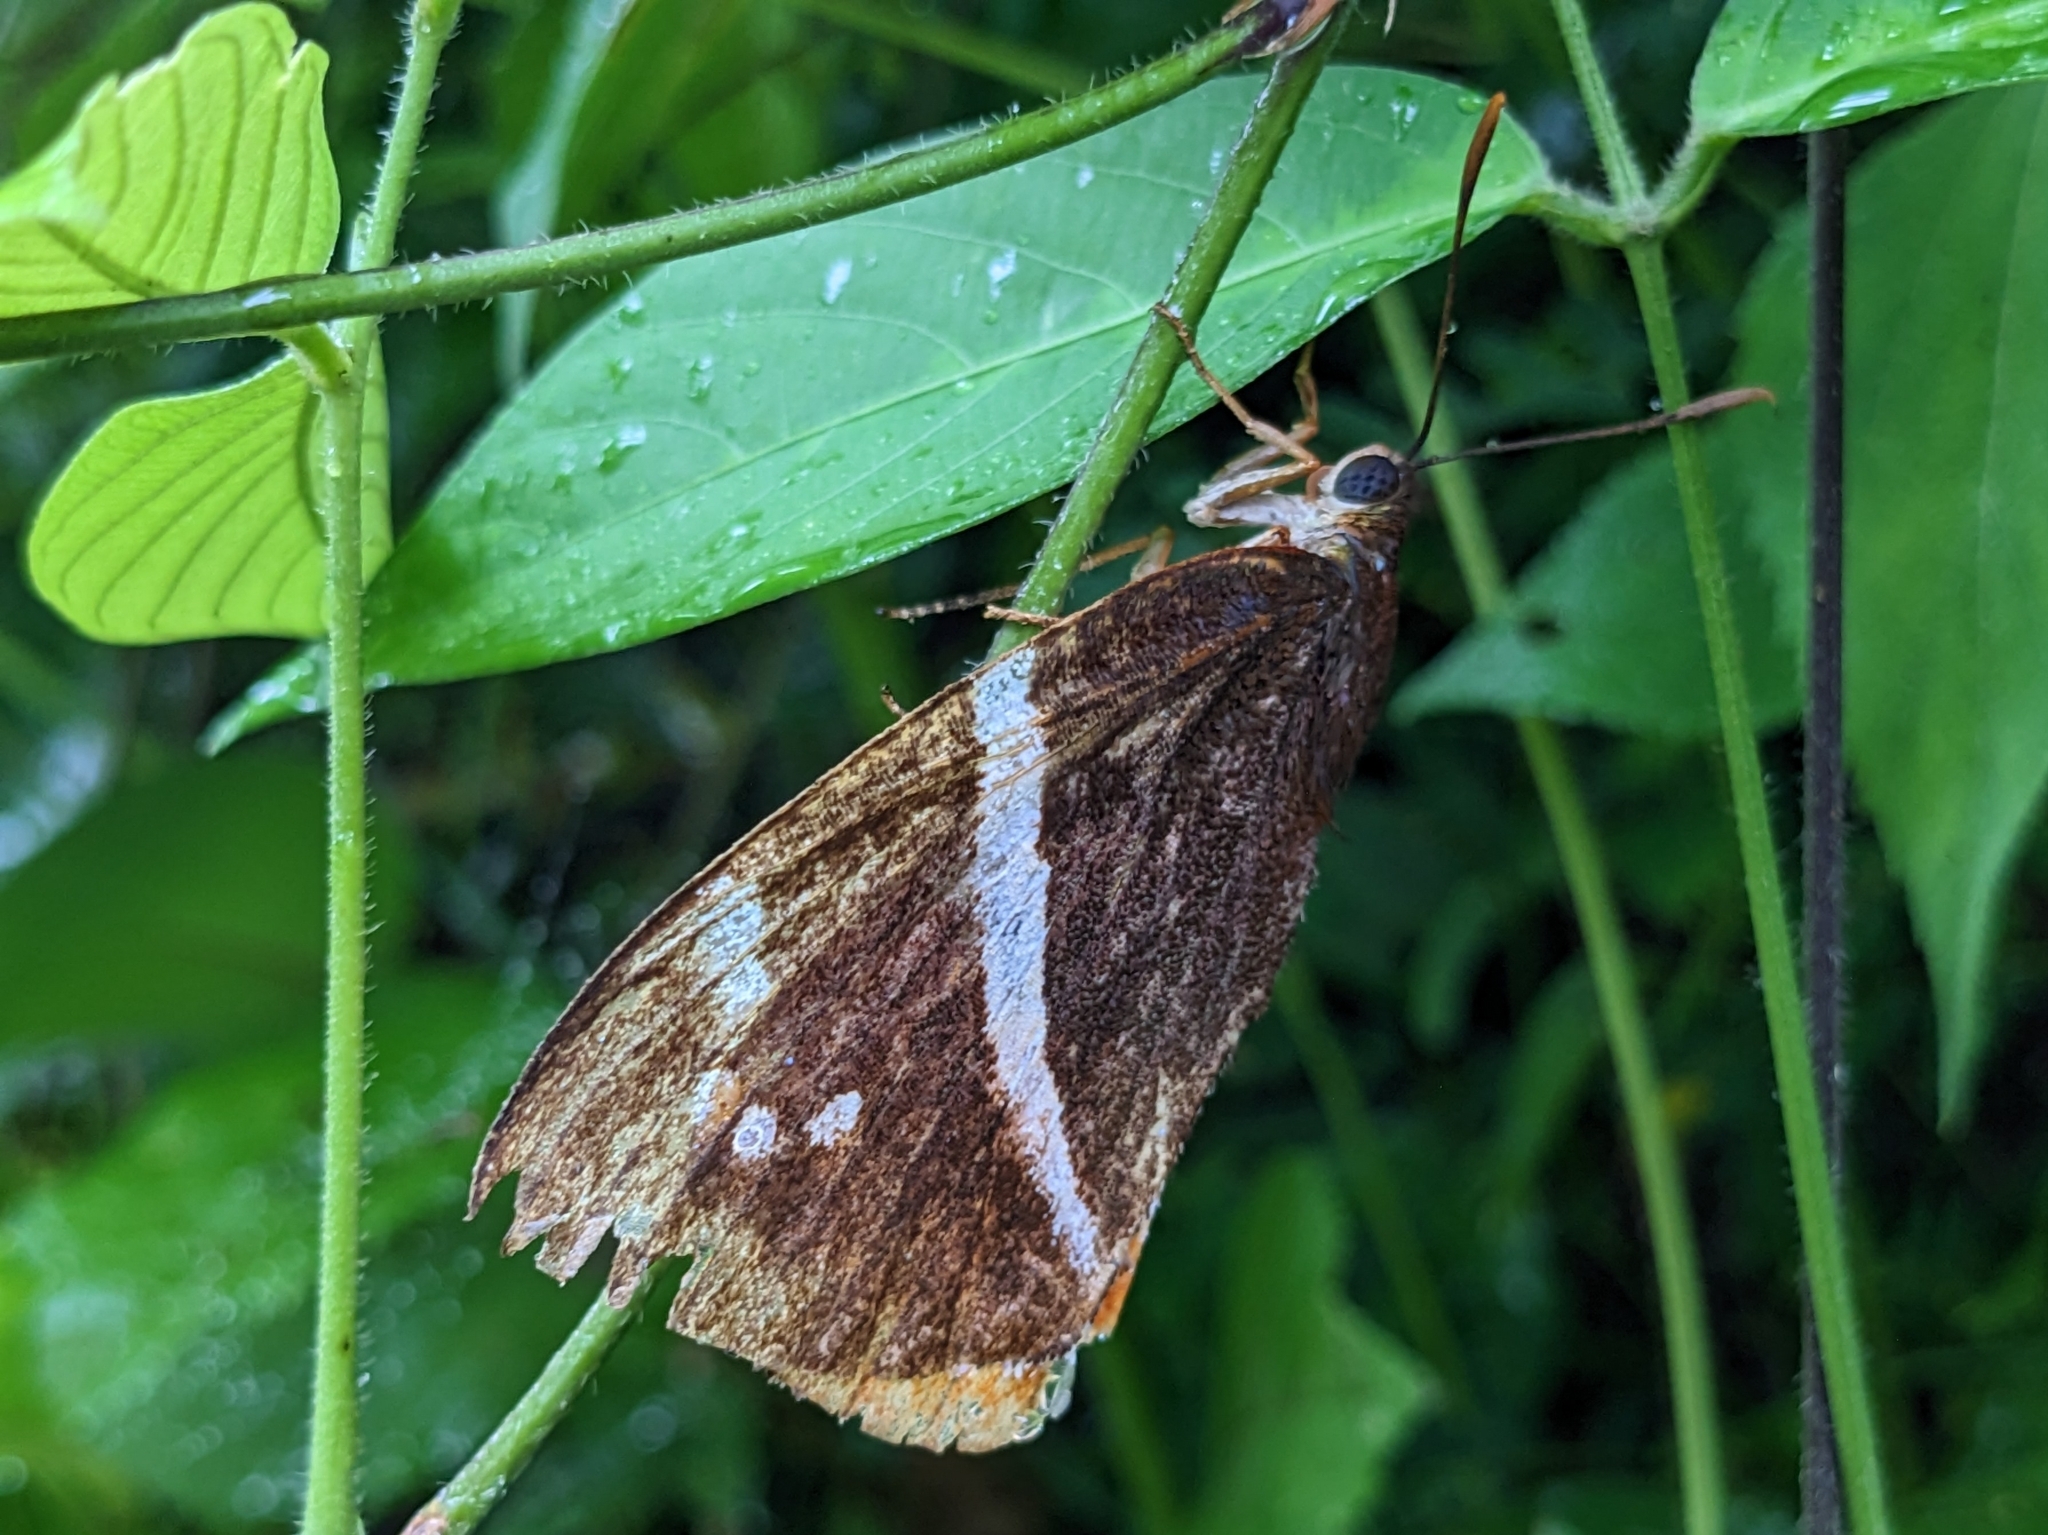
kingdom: Animalia
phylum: Arthropoda
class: Insecta
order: Lepidoptera
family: Castniidae
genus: Castniomera
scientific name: Castniomera atymnius
